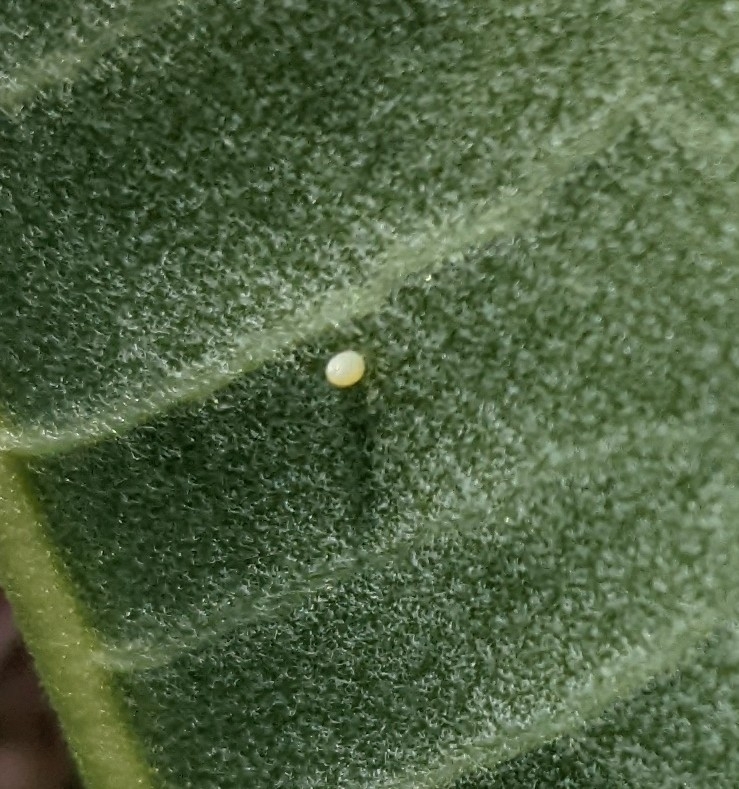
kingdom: Animalia
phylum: Arthropoda
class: Insecta
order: Lepidoptera
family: Nymphalidae
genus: Danaus
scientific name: Danaus plexippus
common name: Monarch
